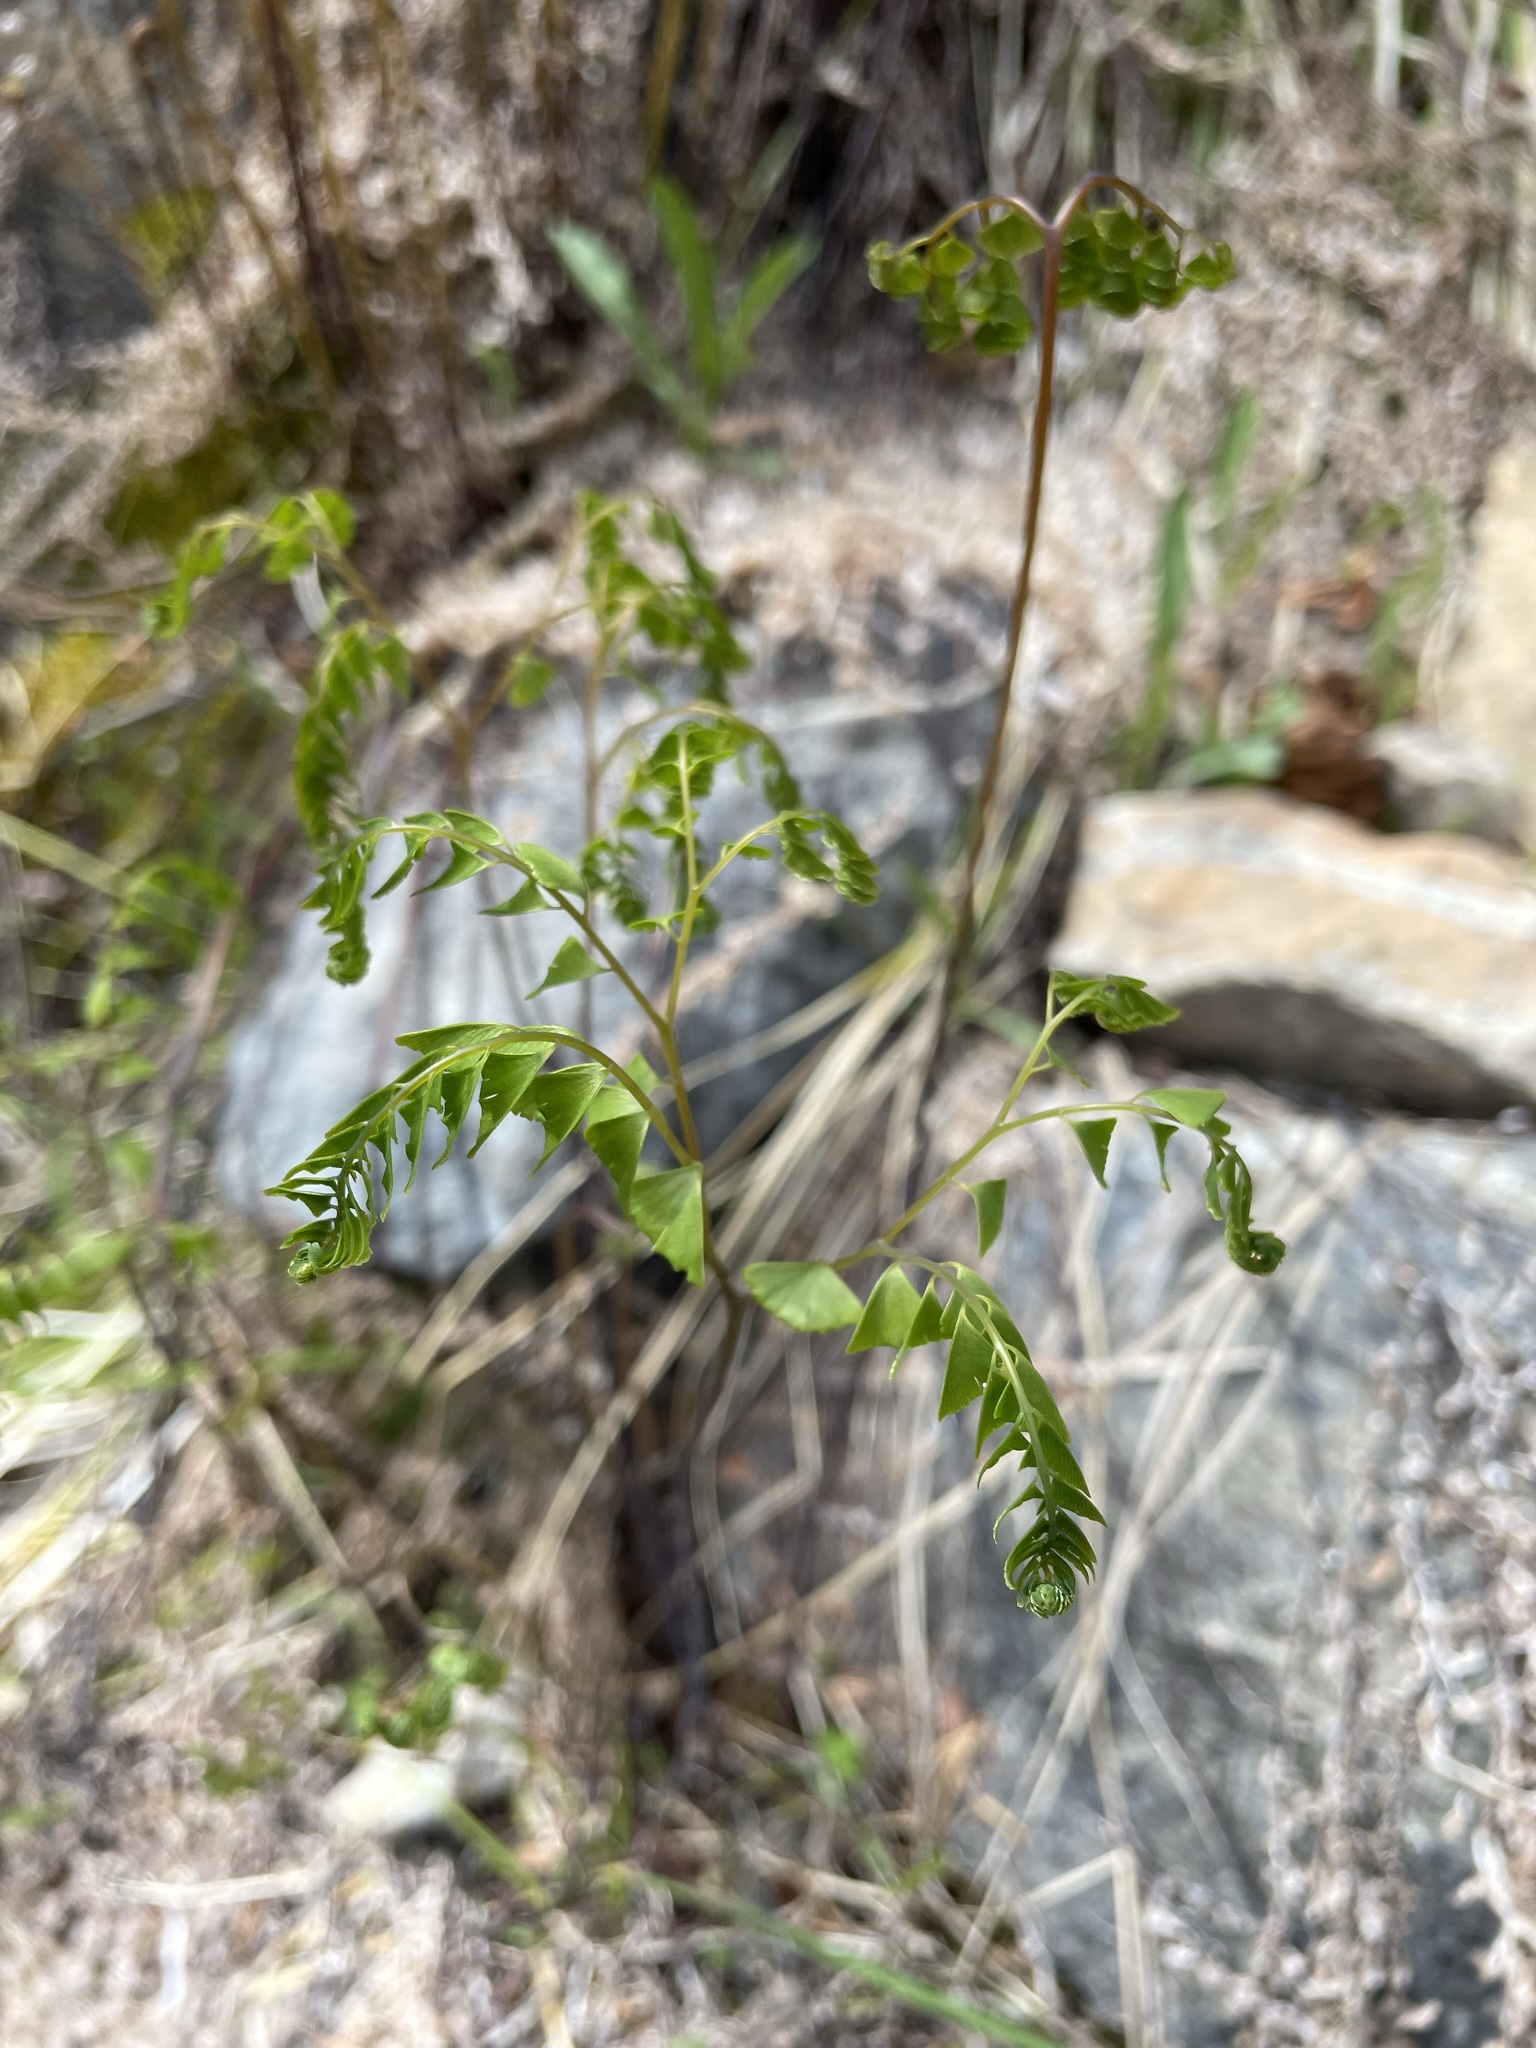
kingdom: Plantae
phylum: Tracheophyta
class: Polypodiopsida
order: Polypodiales
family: Pteridaceae
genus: Adiantum
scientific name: Adiantum aleuticum
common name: Aleutian maidenhair fern
